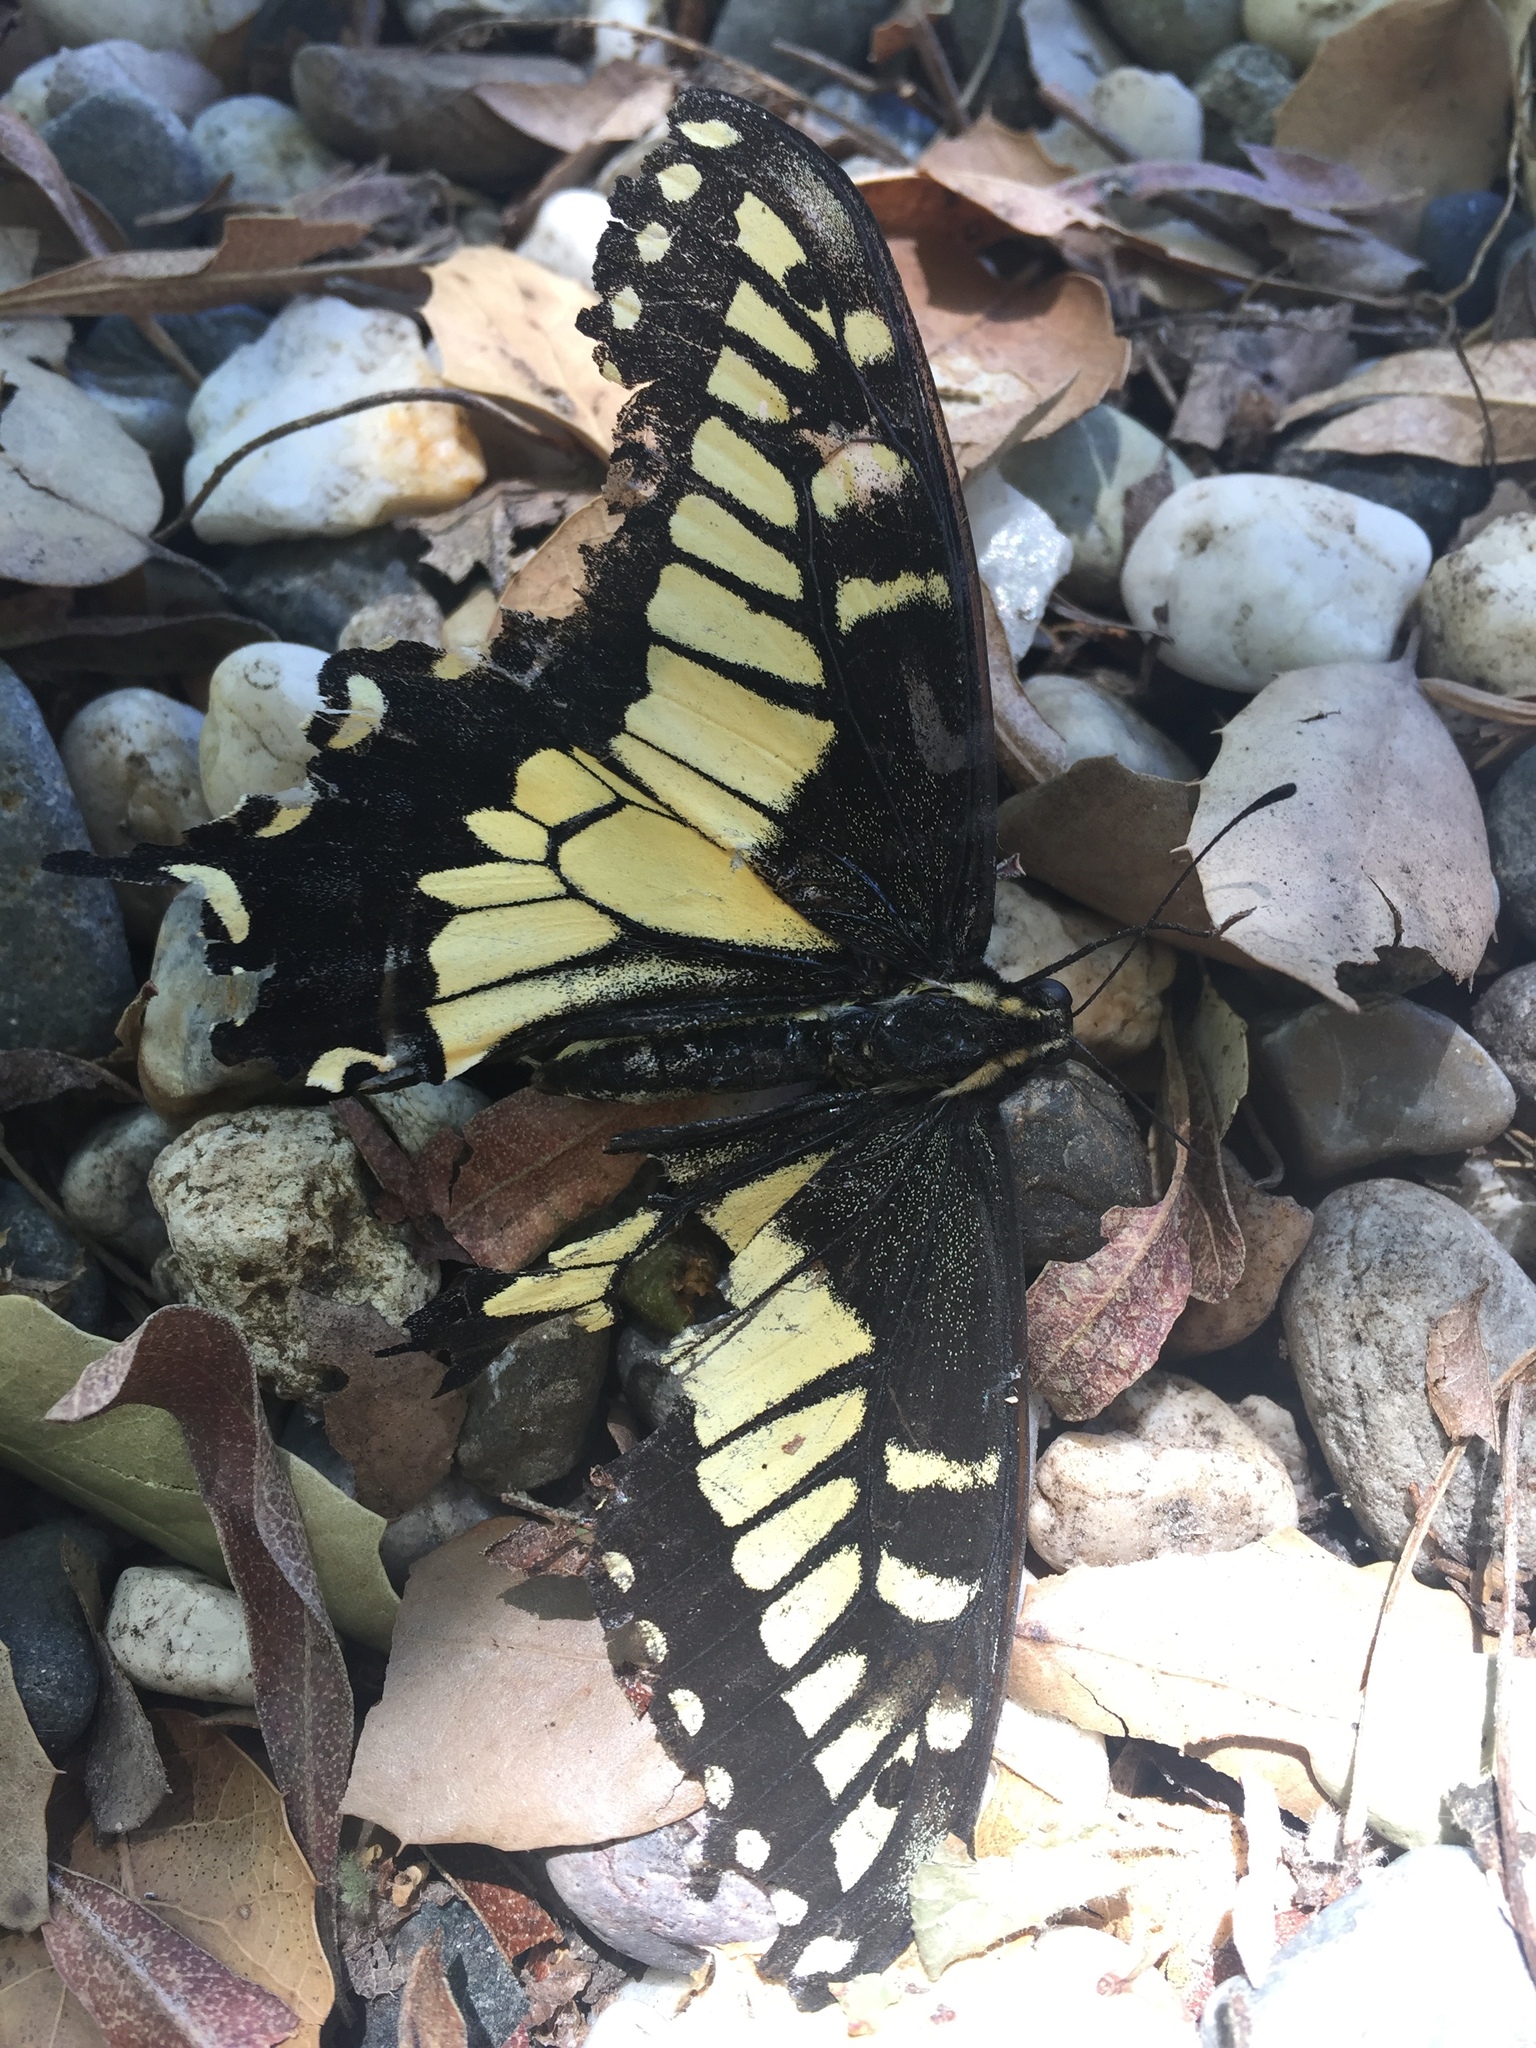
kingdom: Animalia
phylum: Arthropoda
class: Insecta
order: Lepidoptera
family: Papilionidae
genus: Papilio
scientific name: Papilio zelicaon
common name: Anise swallowtail
